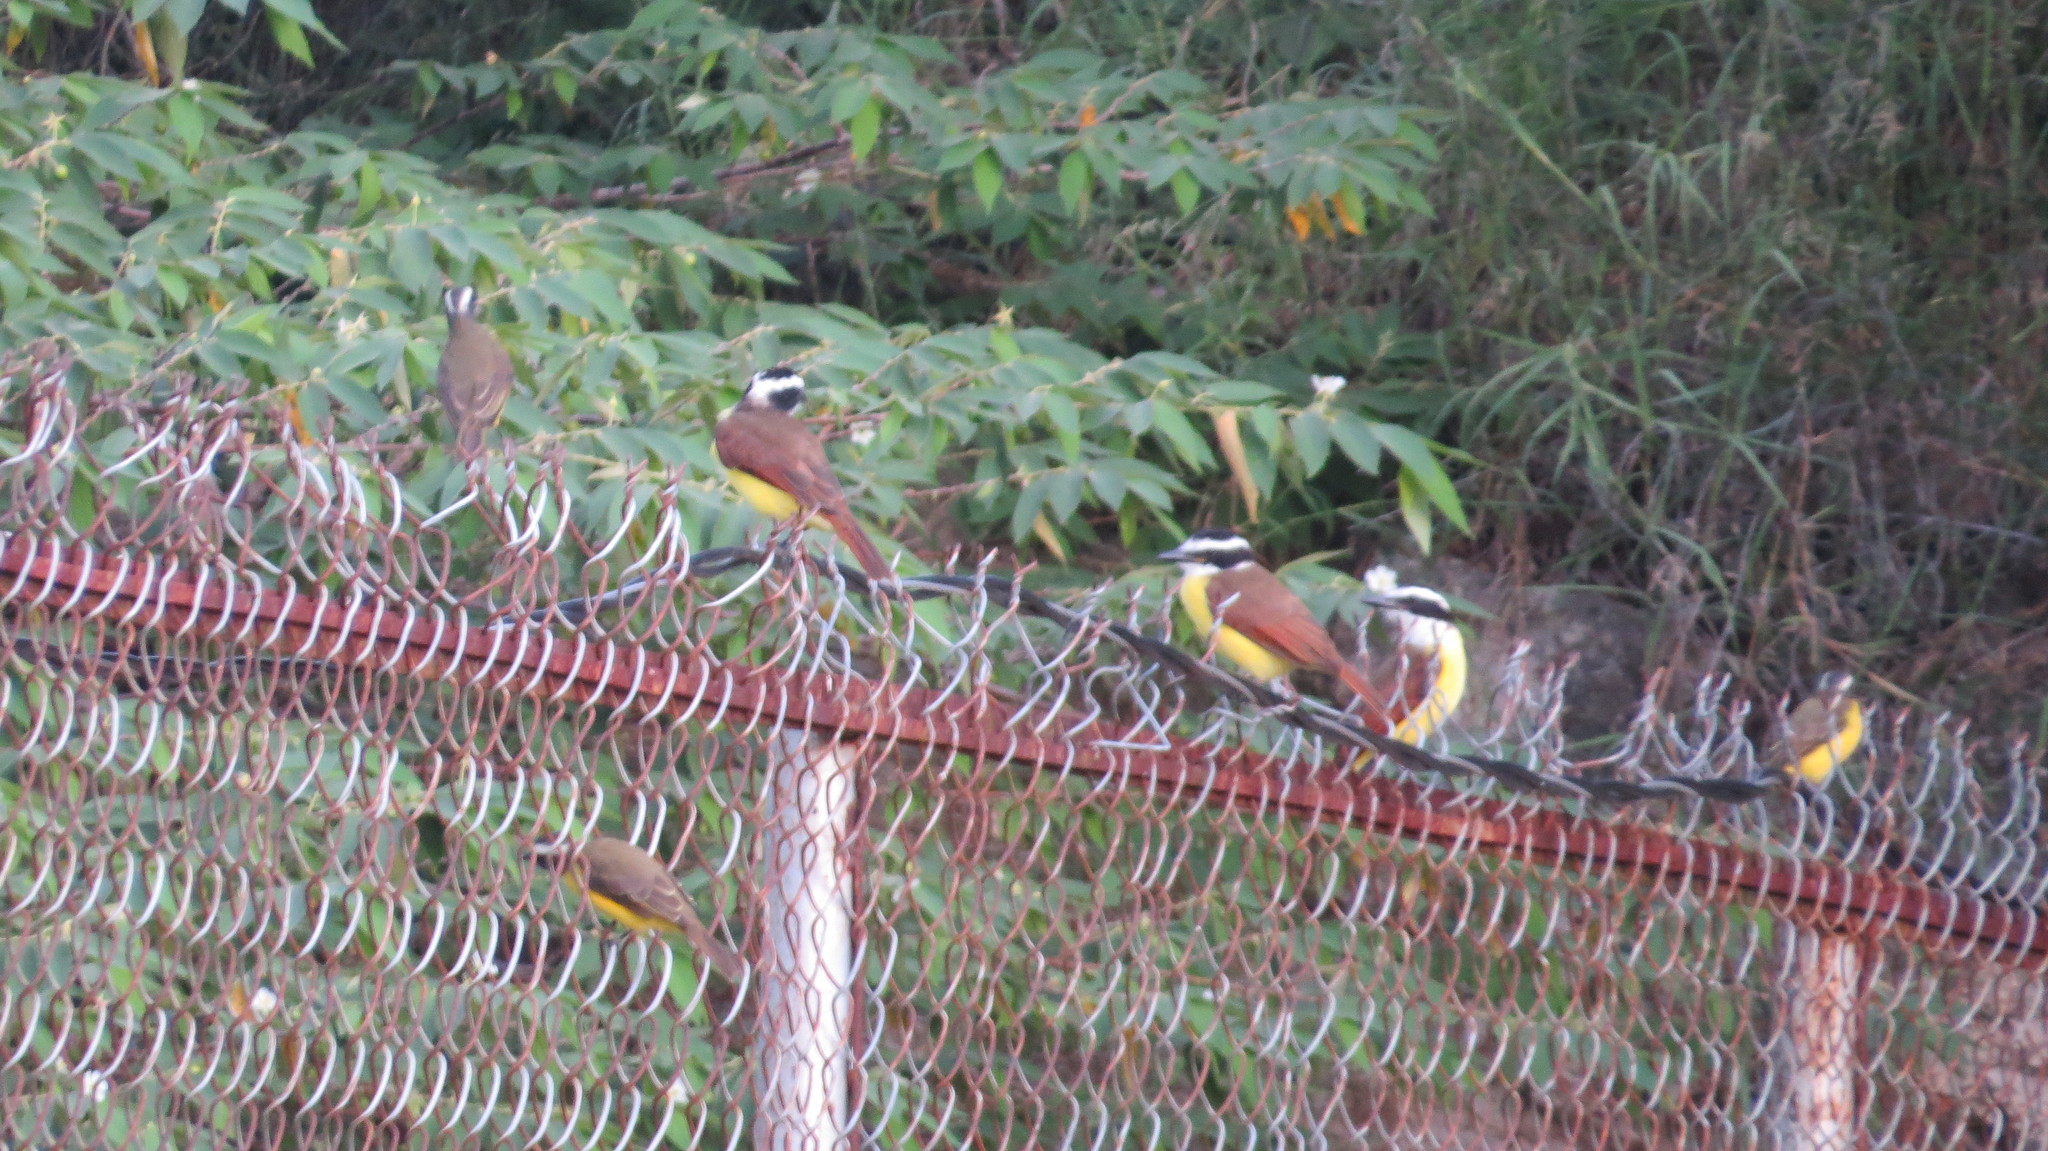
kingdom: Animalia
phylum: Chordata
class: Aves
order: Passeriformes
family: Tyrannidae
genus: Pitangus
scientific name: Pitangus sulphuratus
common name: Great kiskadee
